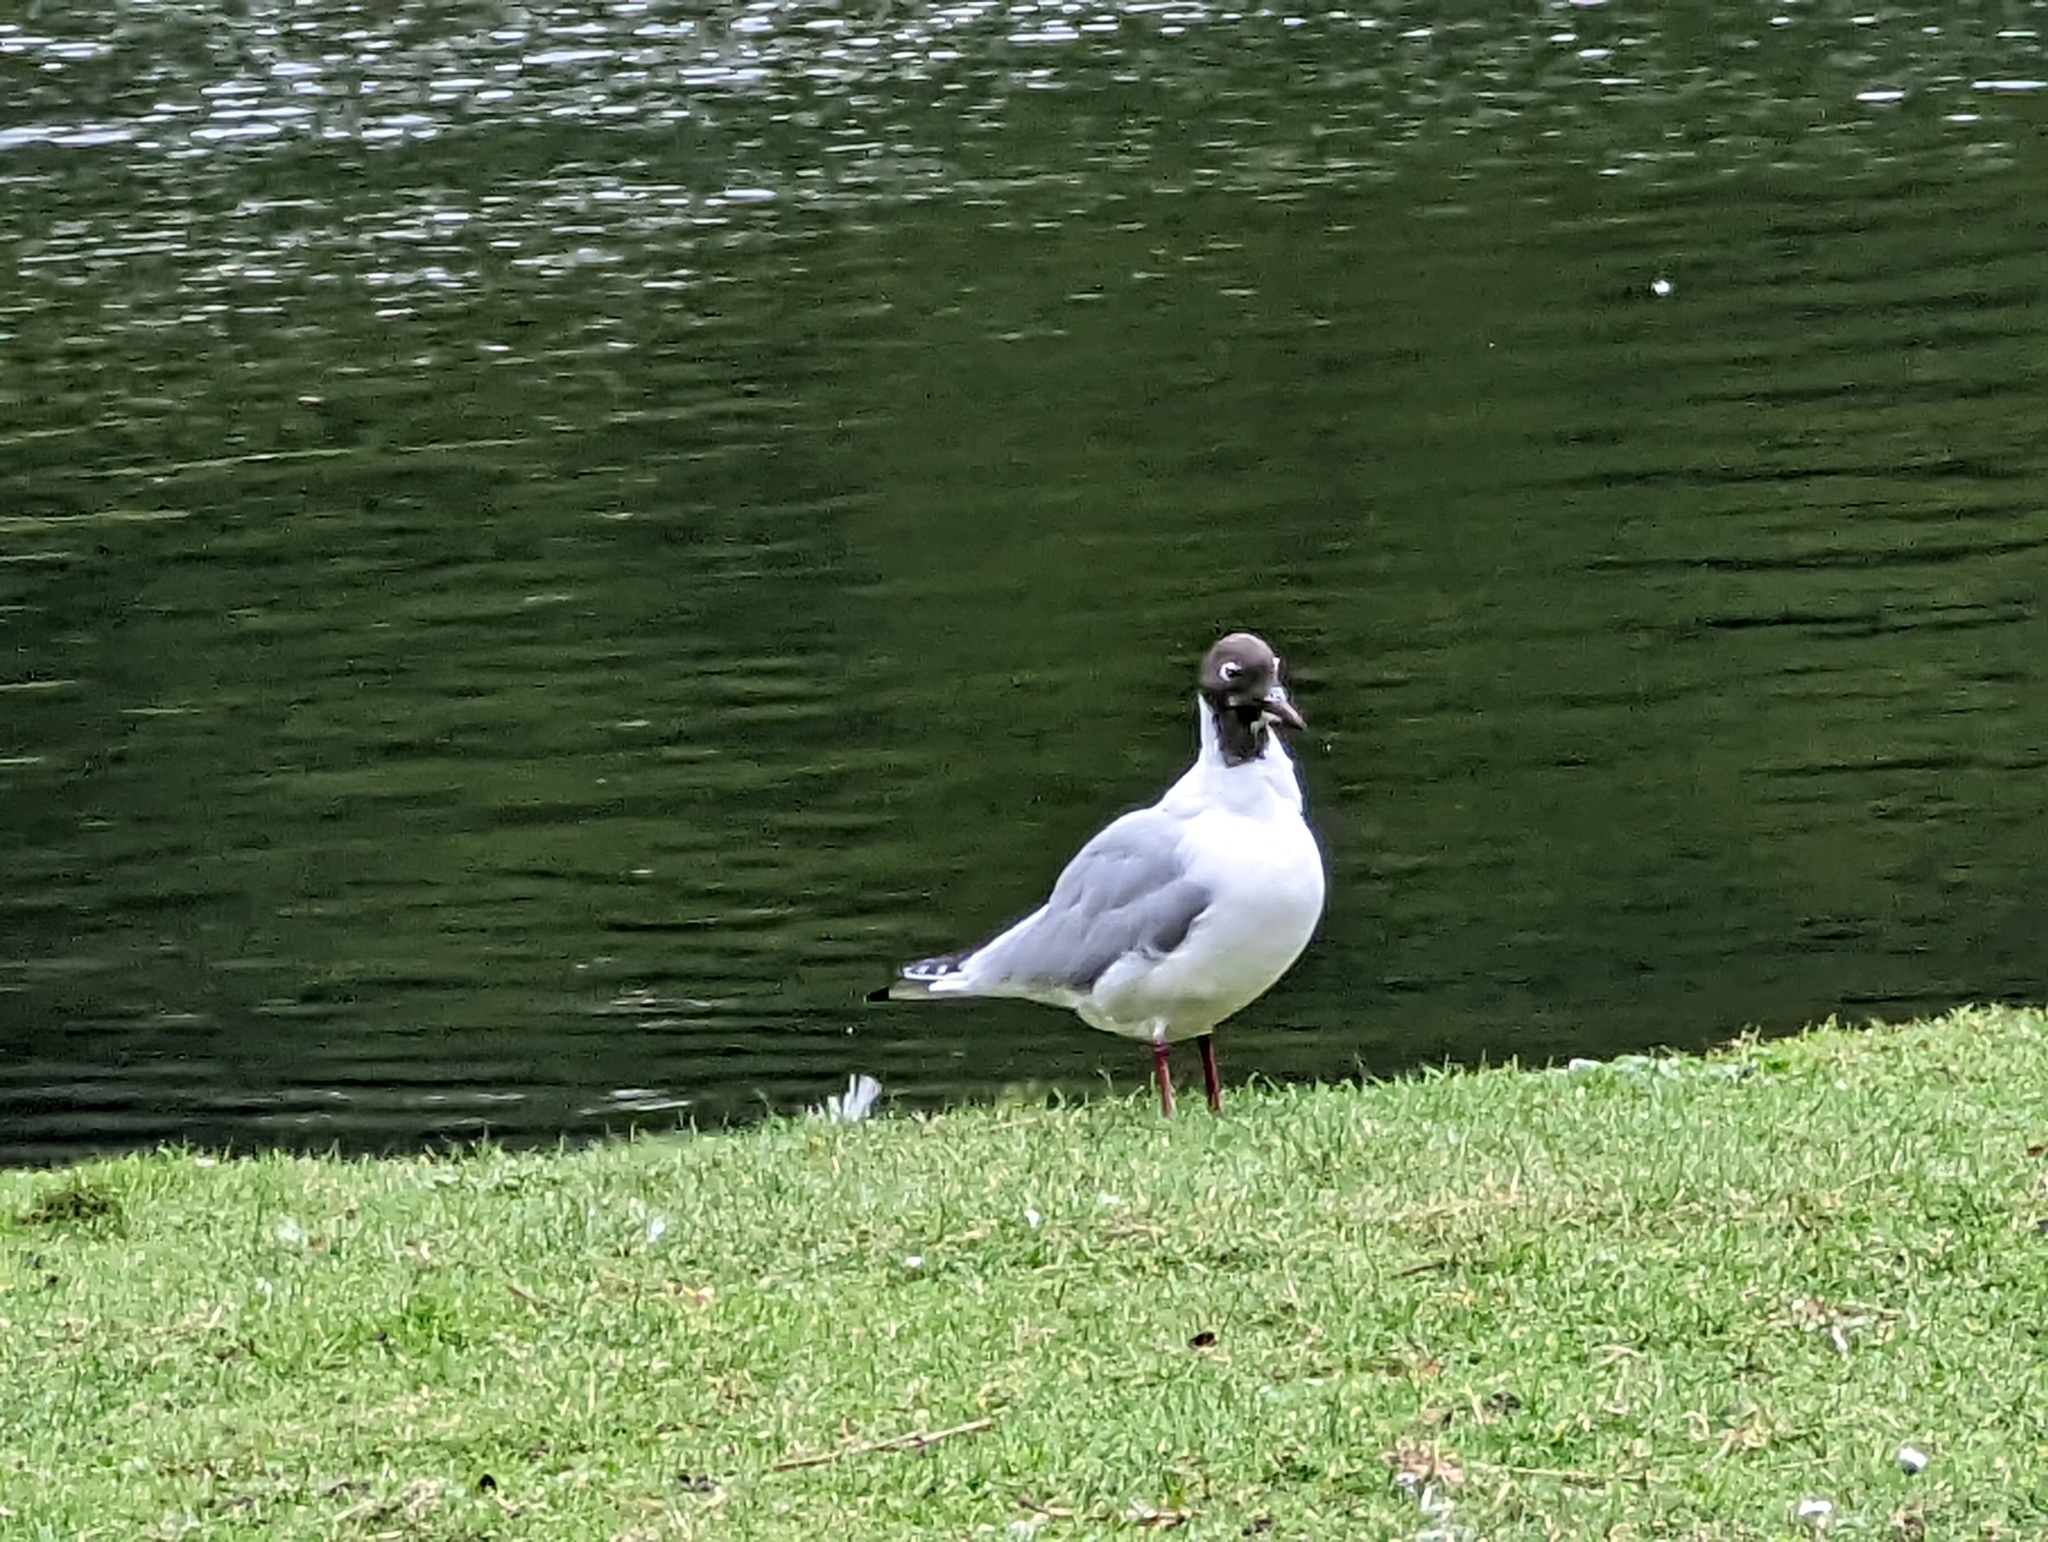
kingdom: Animalia
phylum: Chordata
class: Aves
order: Charadriiformes
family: Laridae
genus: Chroicocephalus
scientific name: Chroicocephalus ridibundus
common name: Black-headed gull
